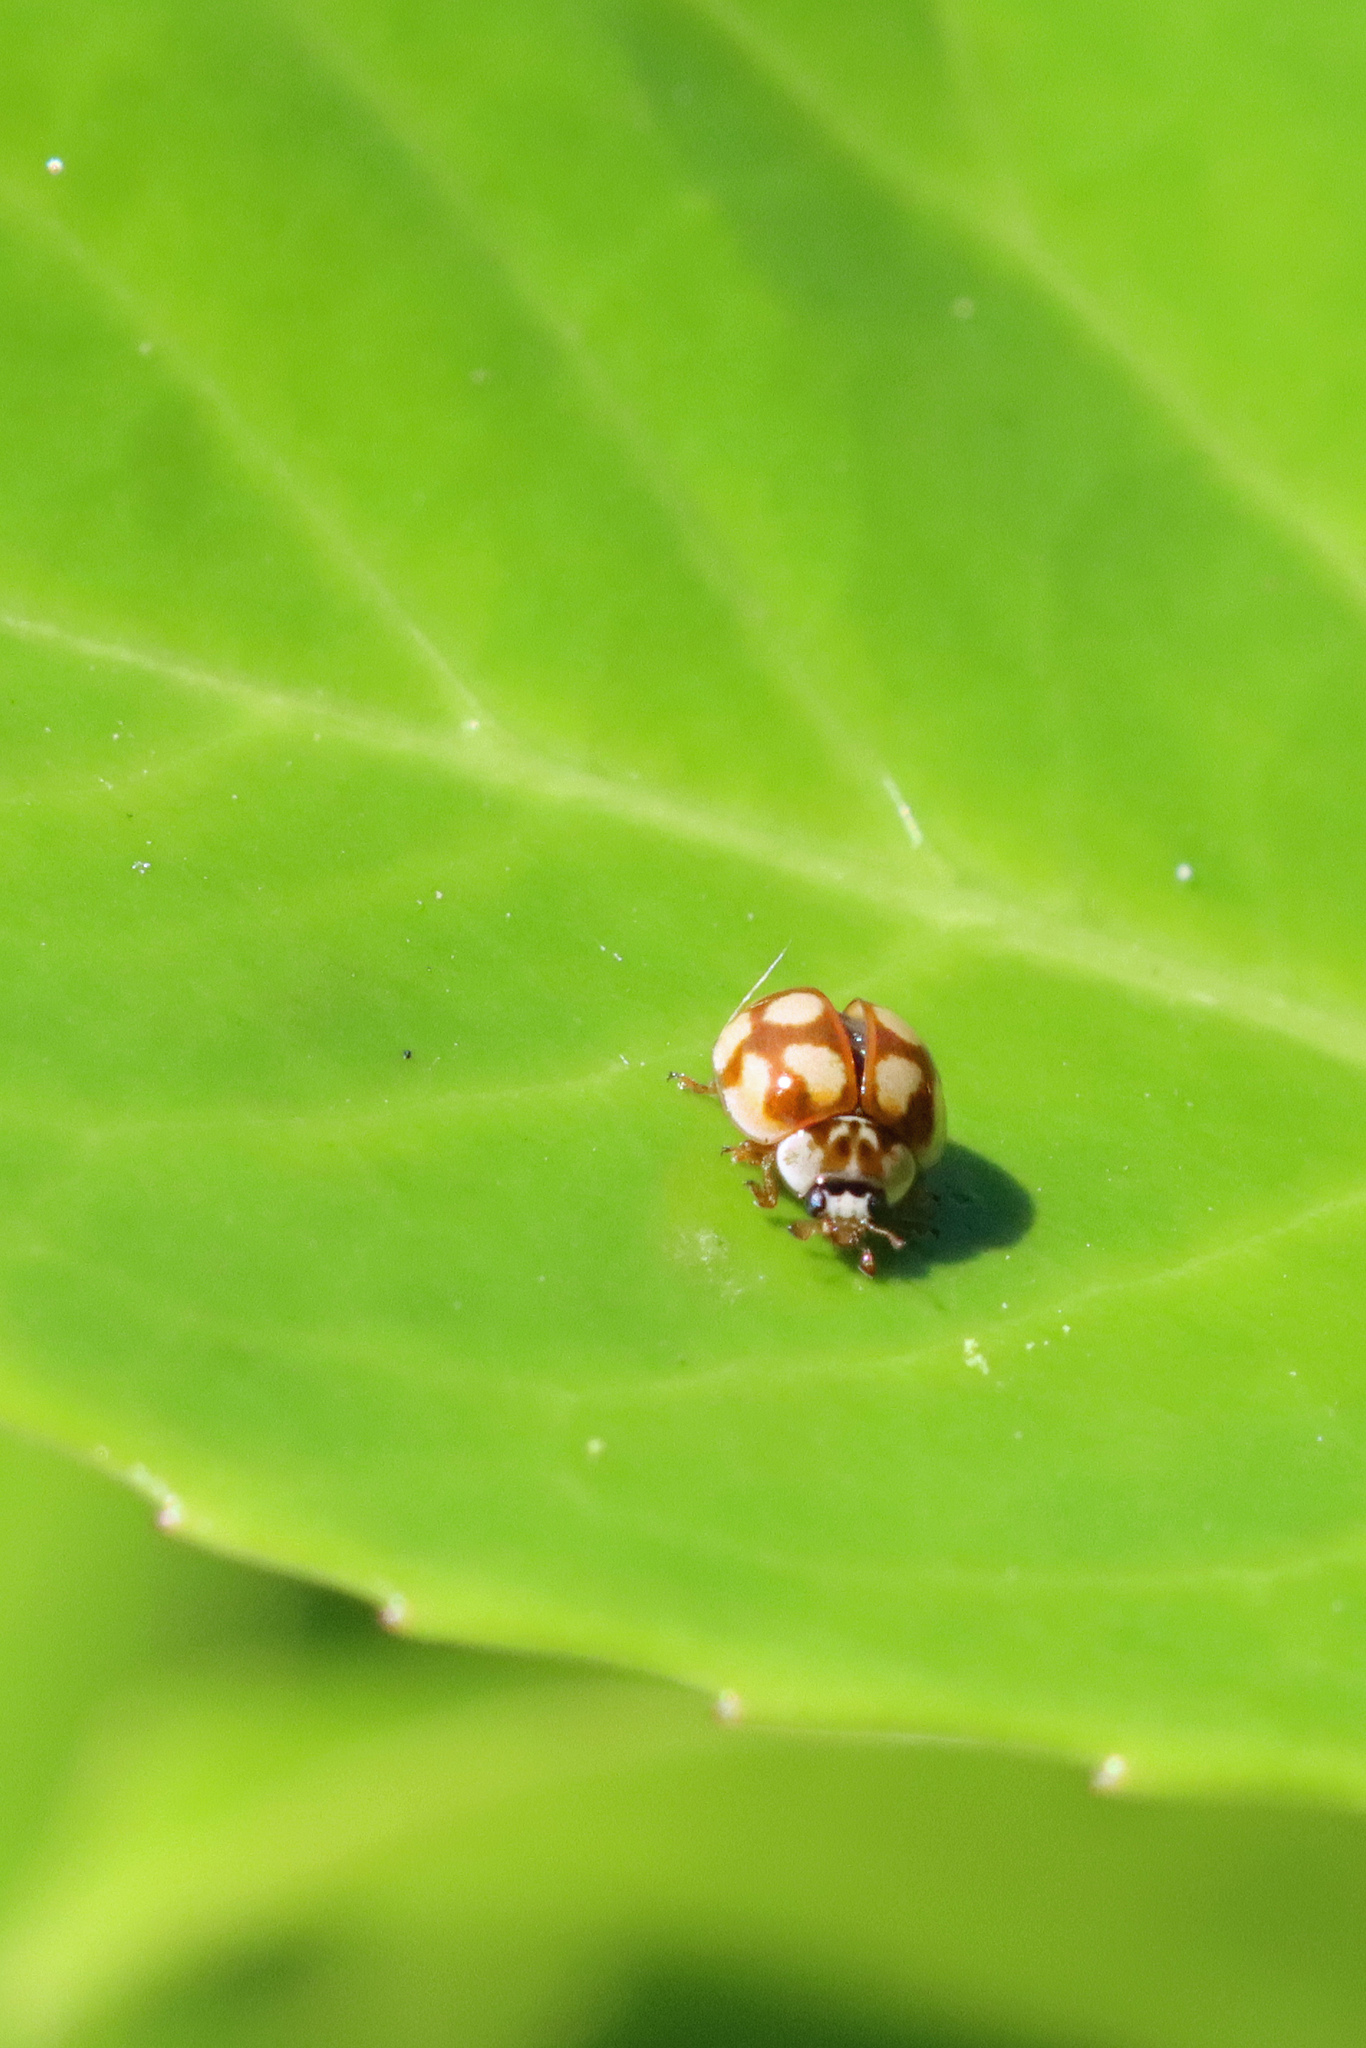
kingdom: Animalia
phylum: Arthropoda
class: Insecta
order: Coleoptera
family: Coccinellidae
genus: Adalia
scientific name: Adalia decempunctata
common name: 10-spot ladybird
